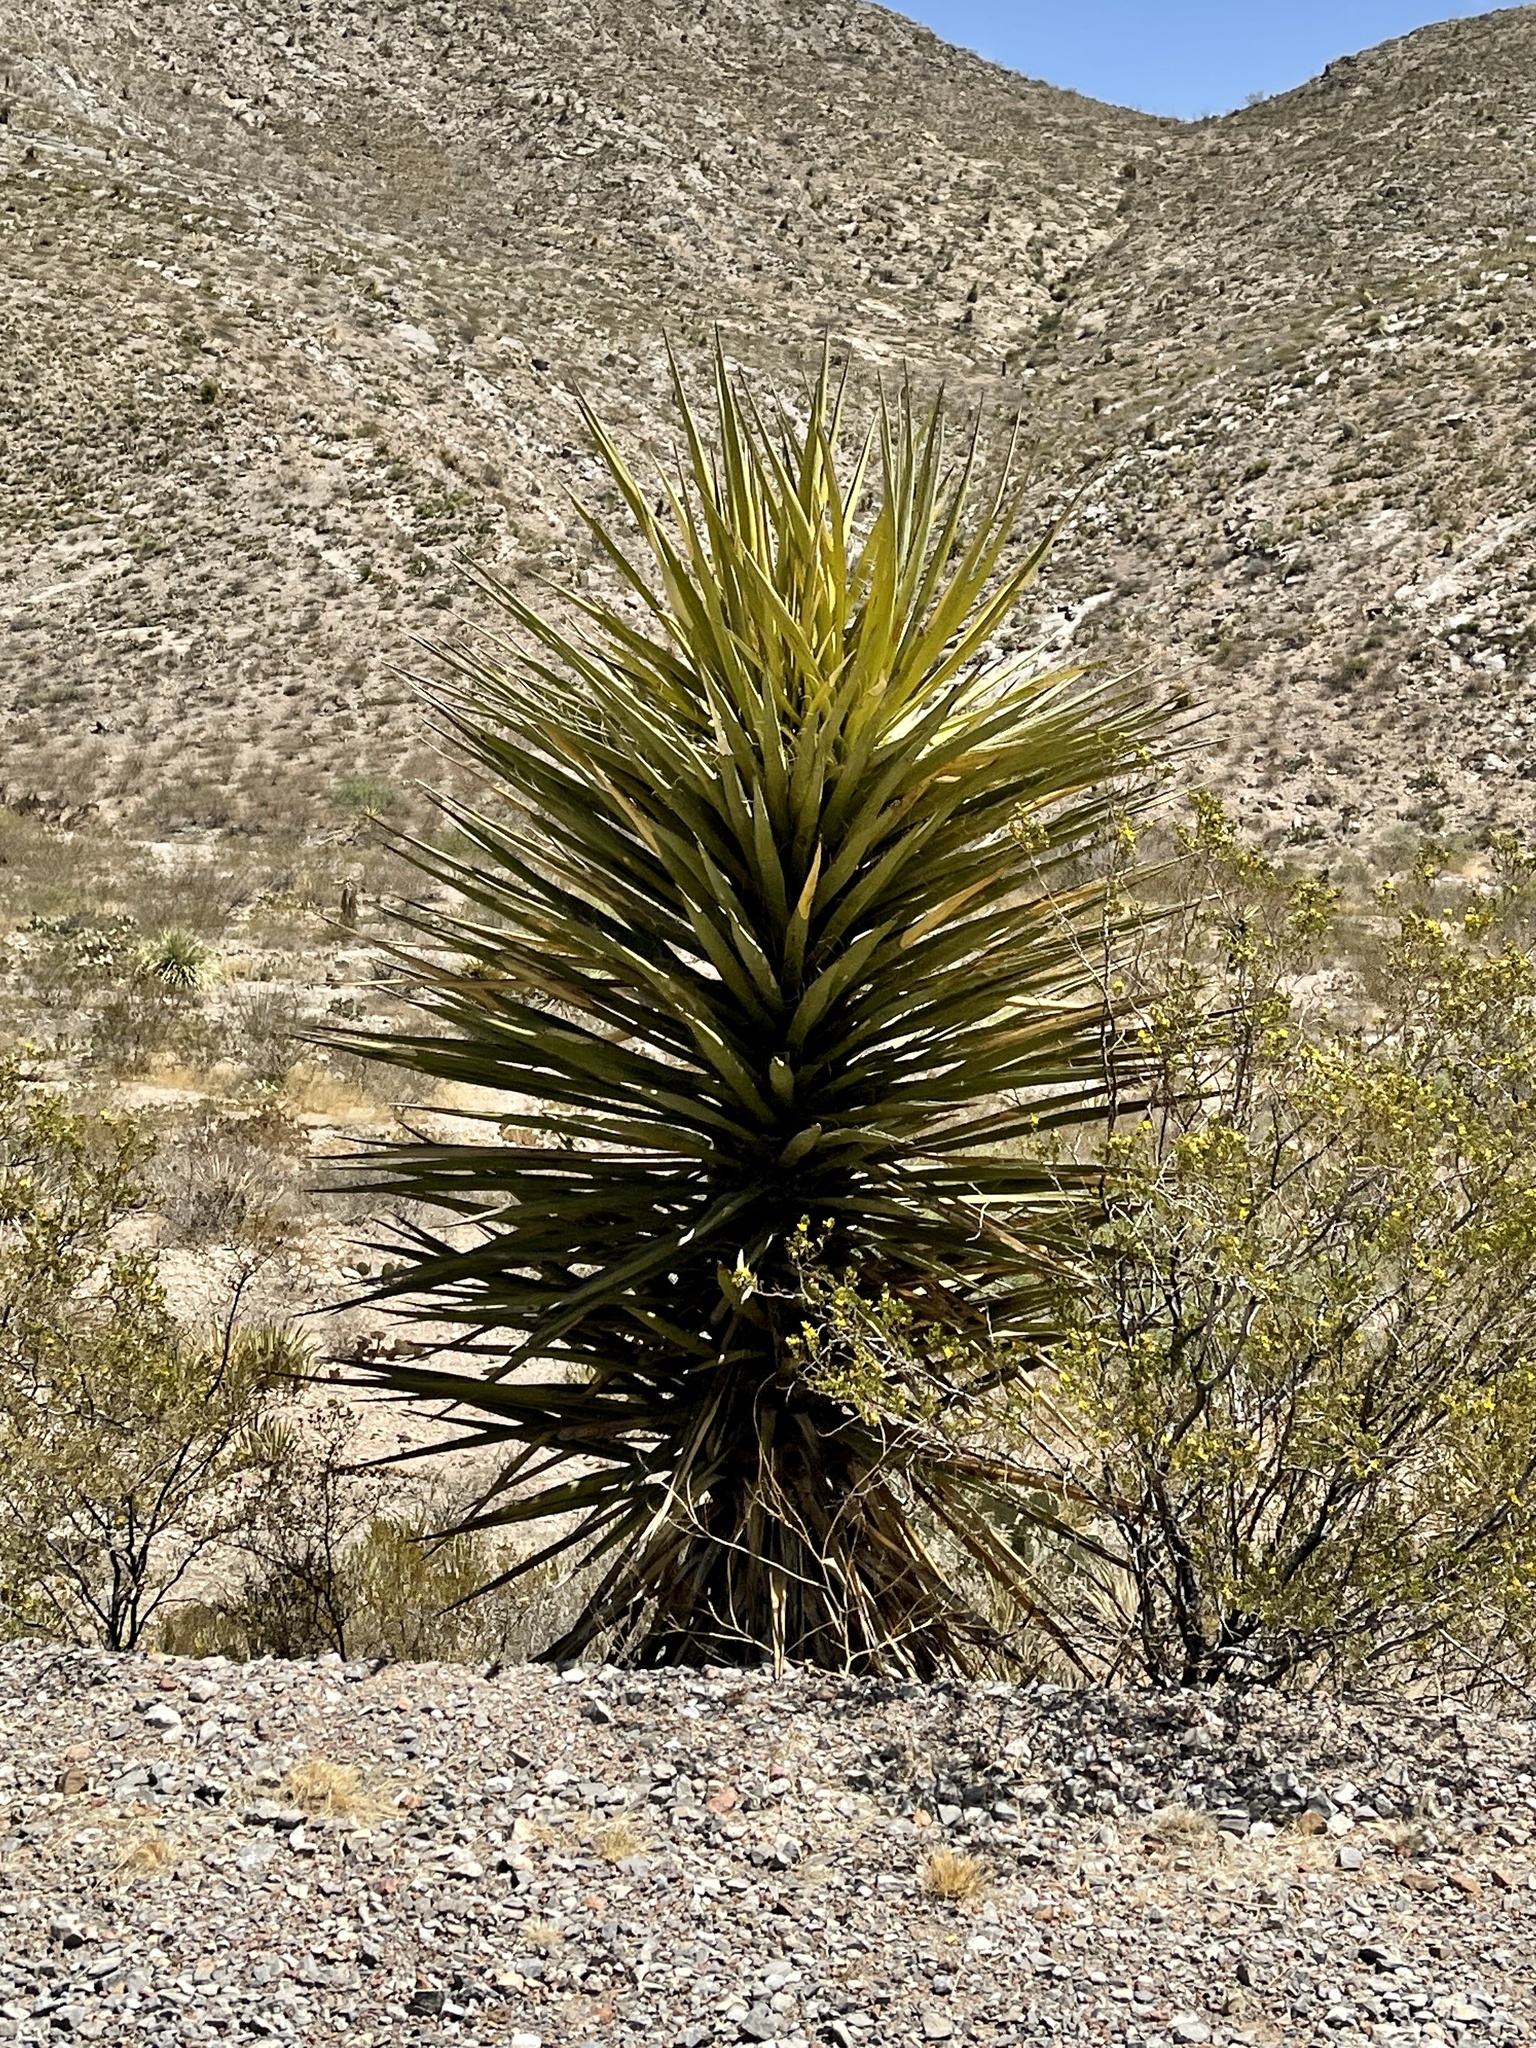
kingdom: Plantae
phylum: Tracheophyta
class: Liliopsida
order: Asparagales
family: Asparagaceae
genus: Yucca
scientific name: Yucca treculiana
